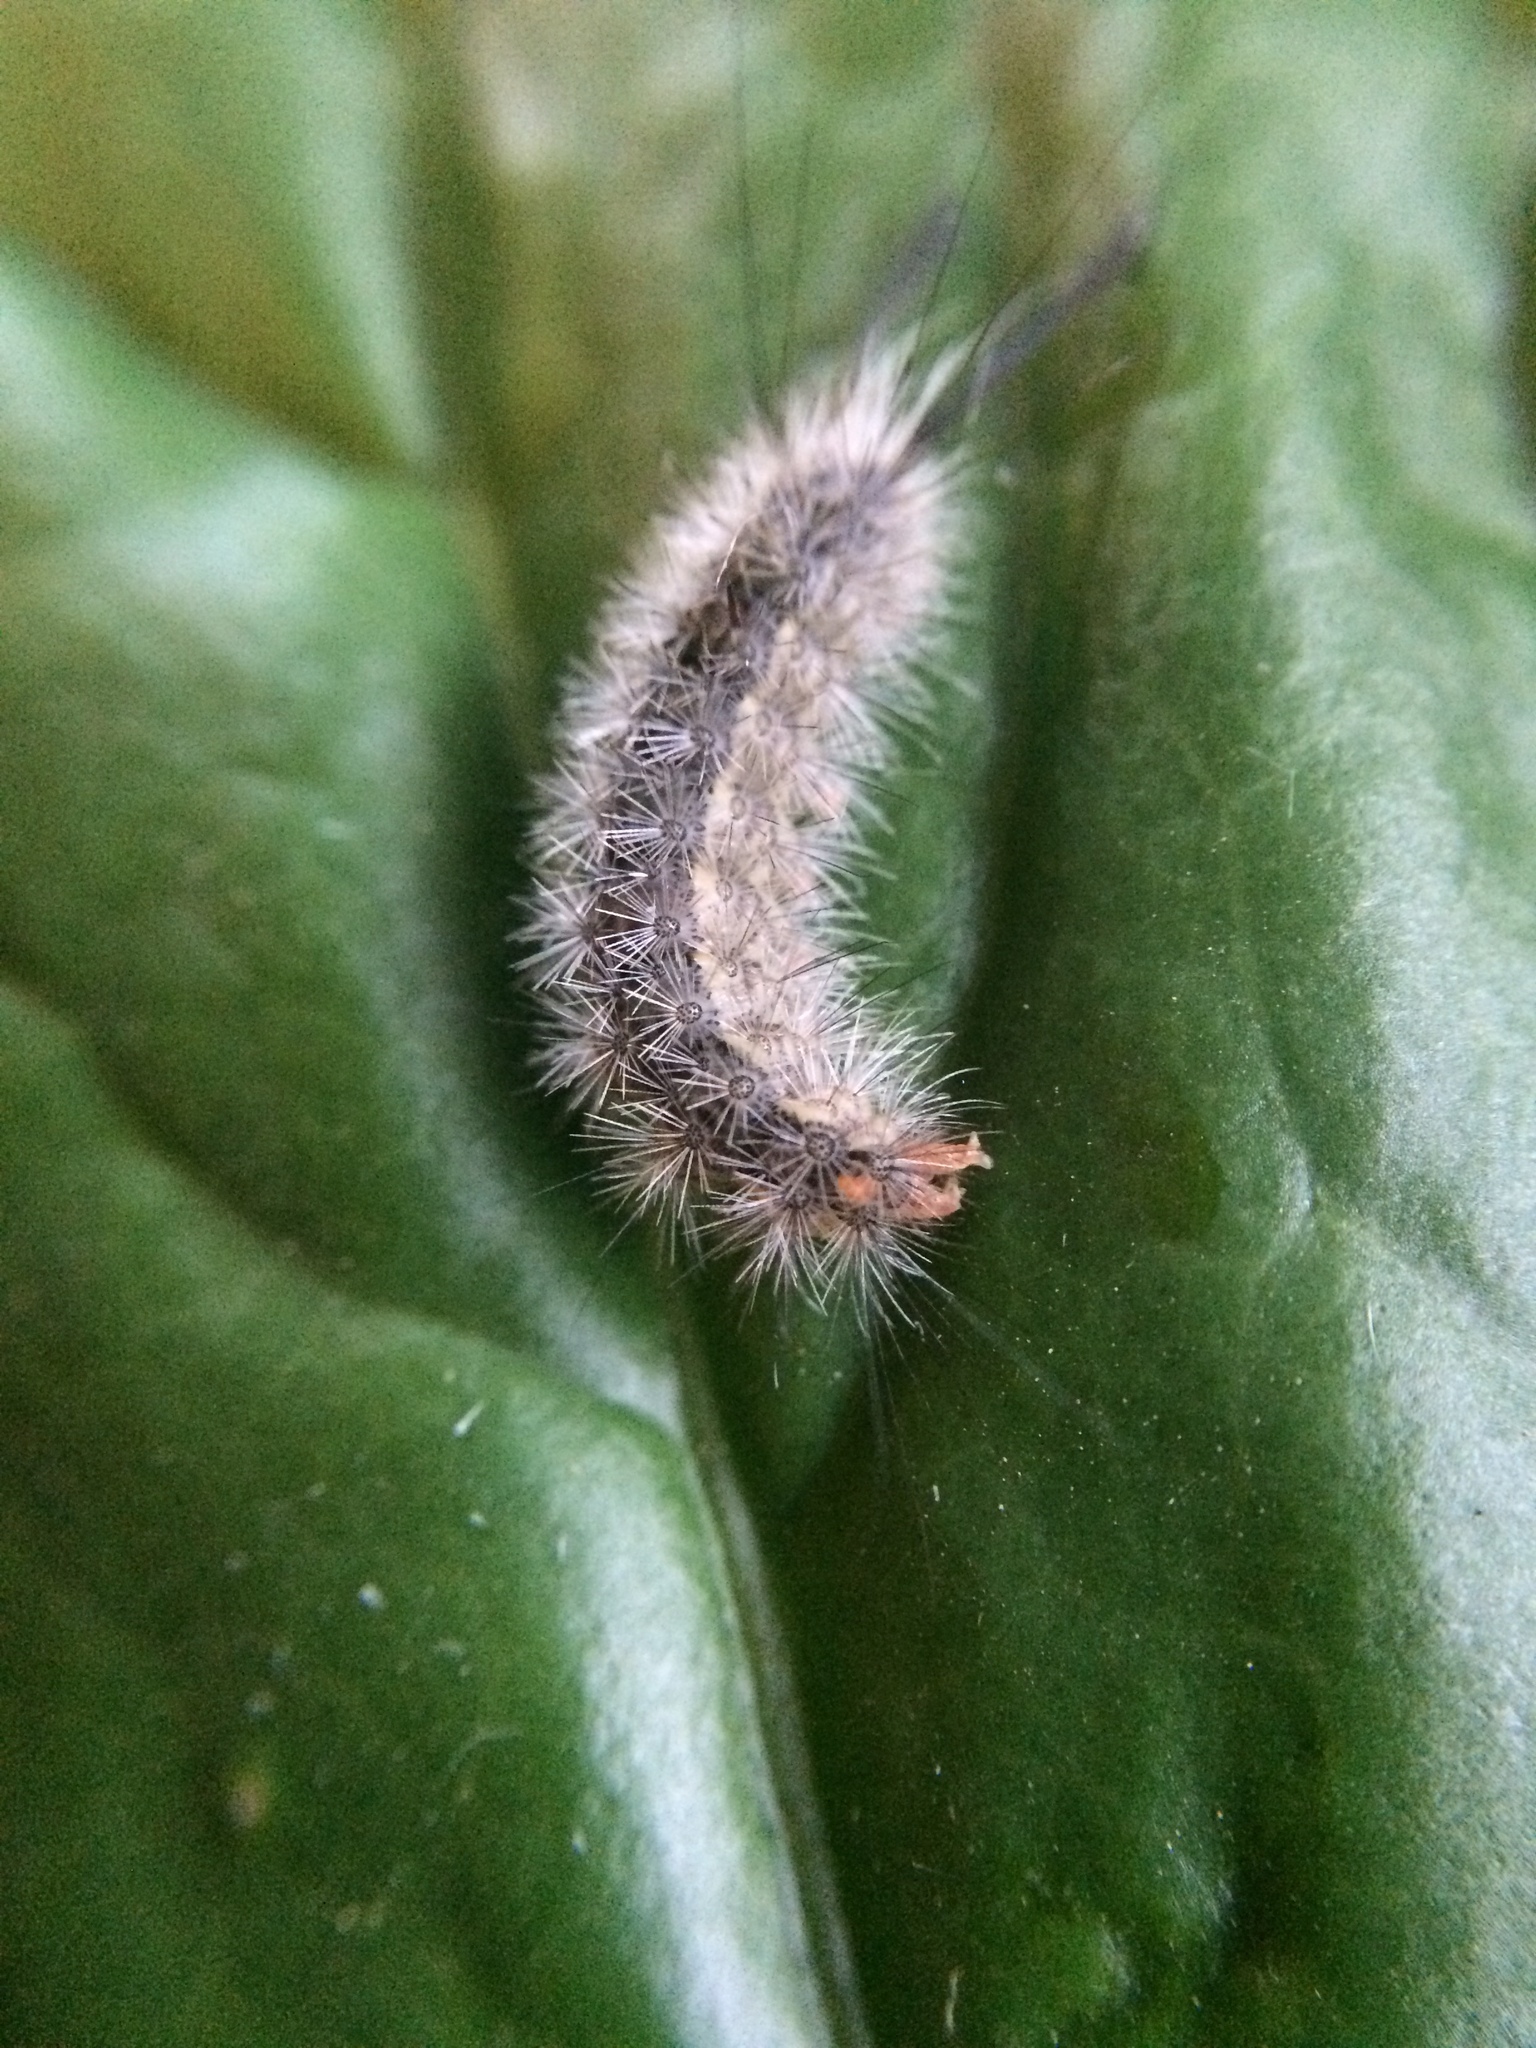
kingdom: Animalia
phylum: Arthropoda
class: Insecta
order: Lepidoptera
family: Erebidae
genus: Galtara
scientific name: Galtara rostrata
